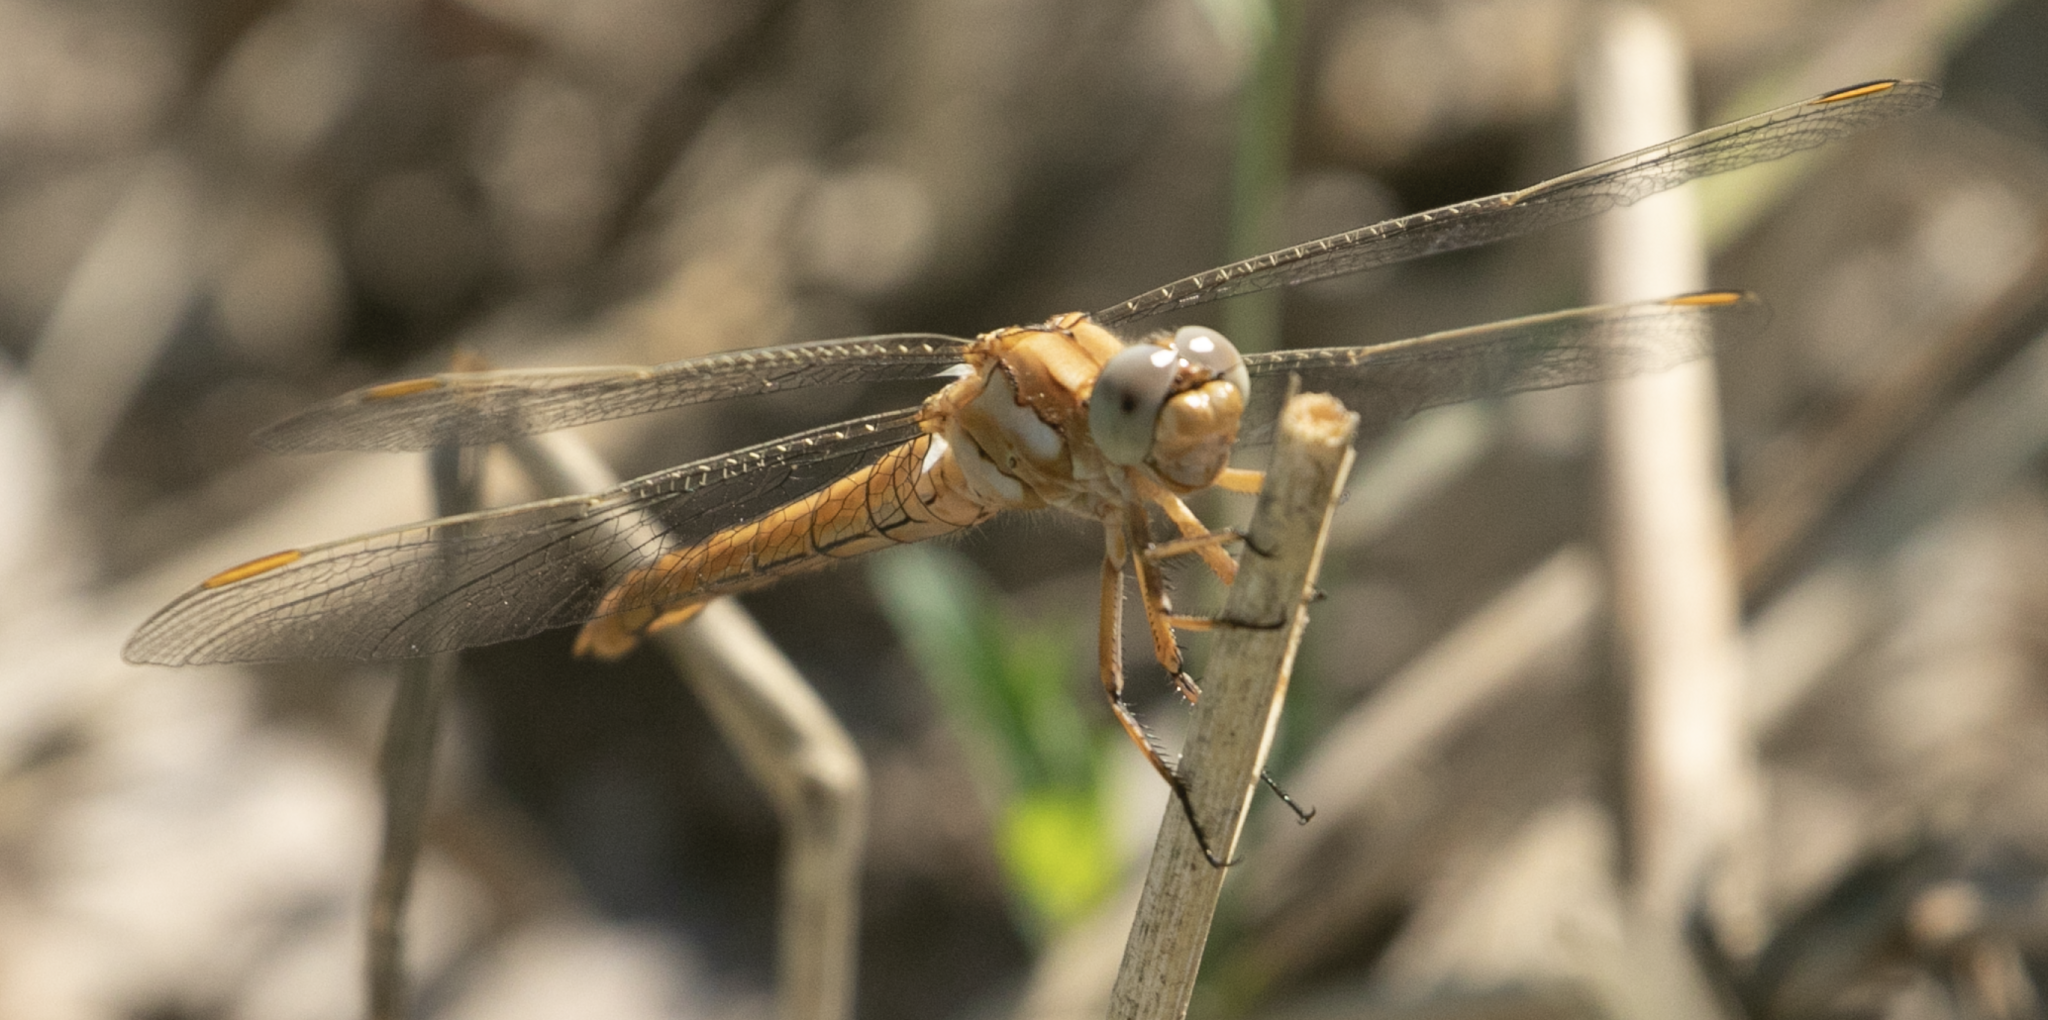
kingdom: Animalia
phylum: Arthropoda
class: Insecta
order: Odonata
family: Libellulidae
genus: Orthetrum
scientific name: Orthetrum brunneum
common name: Southern skimmer
